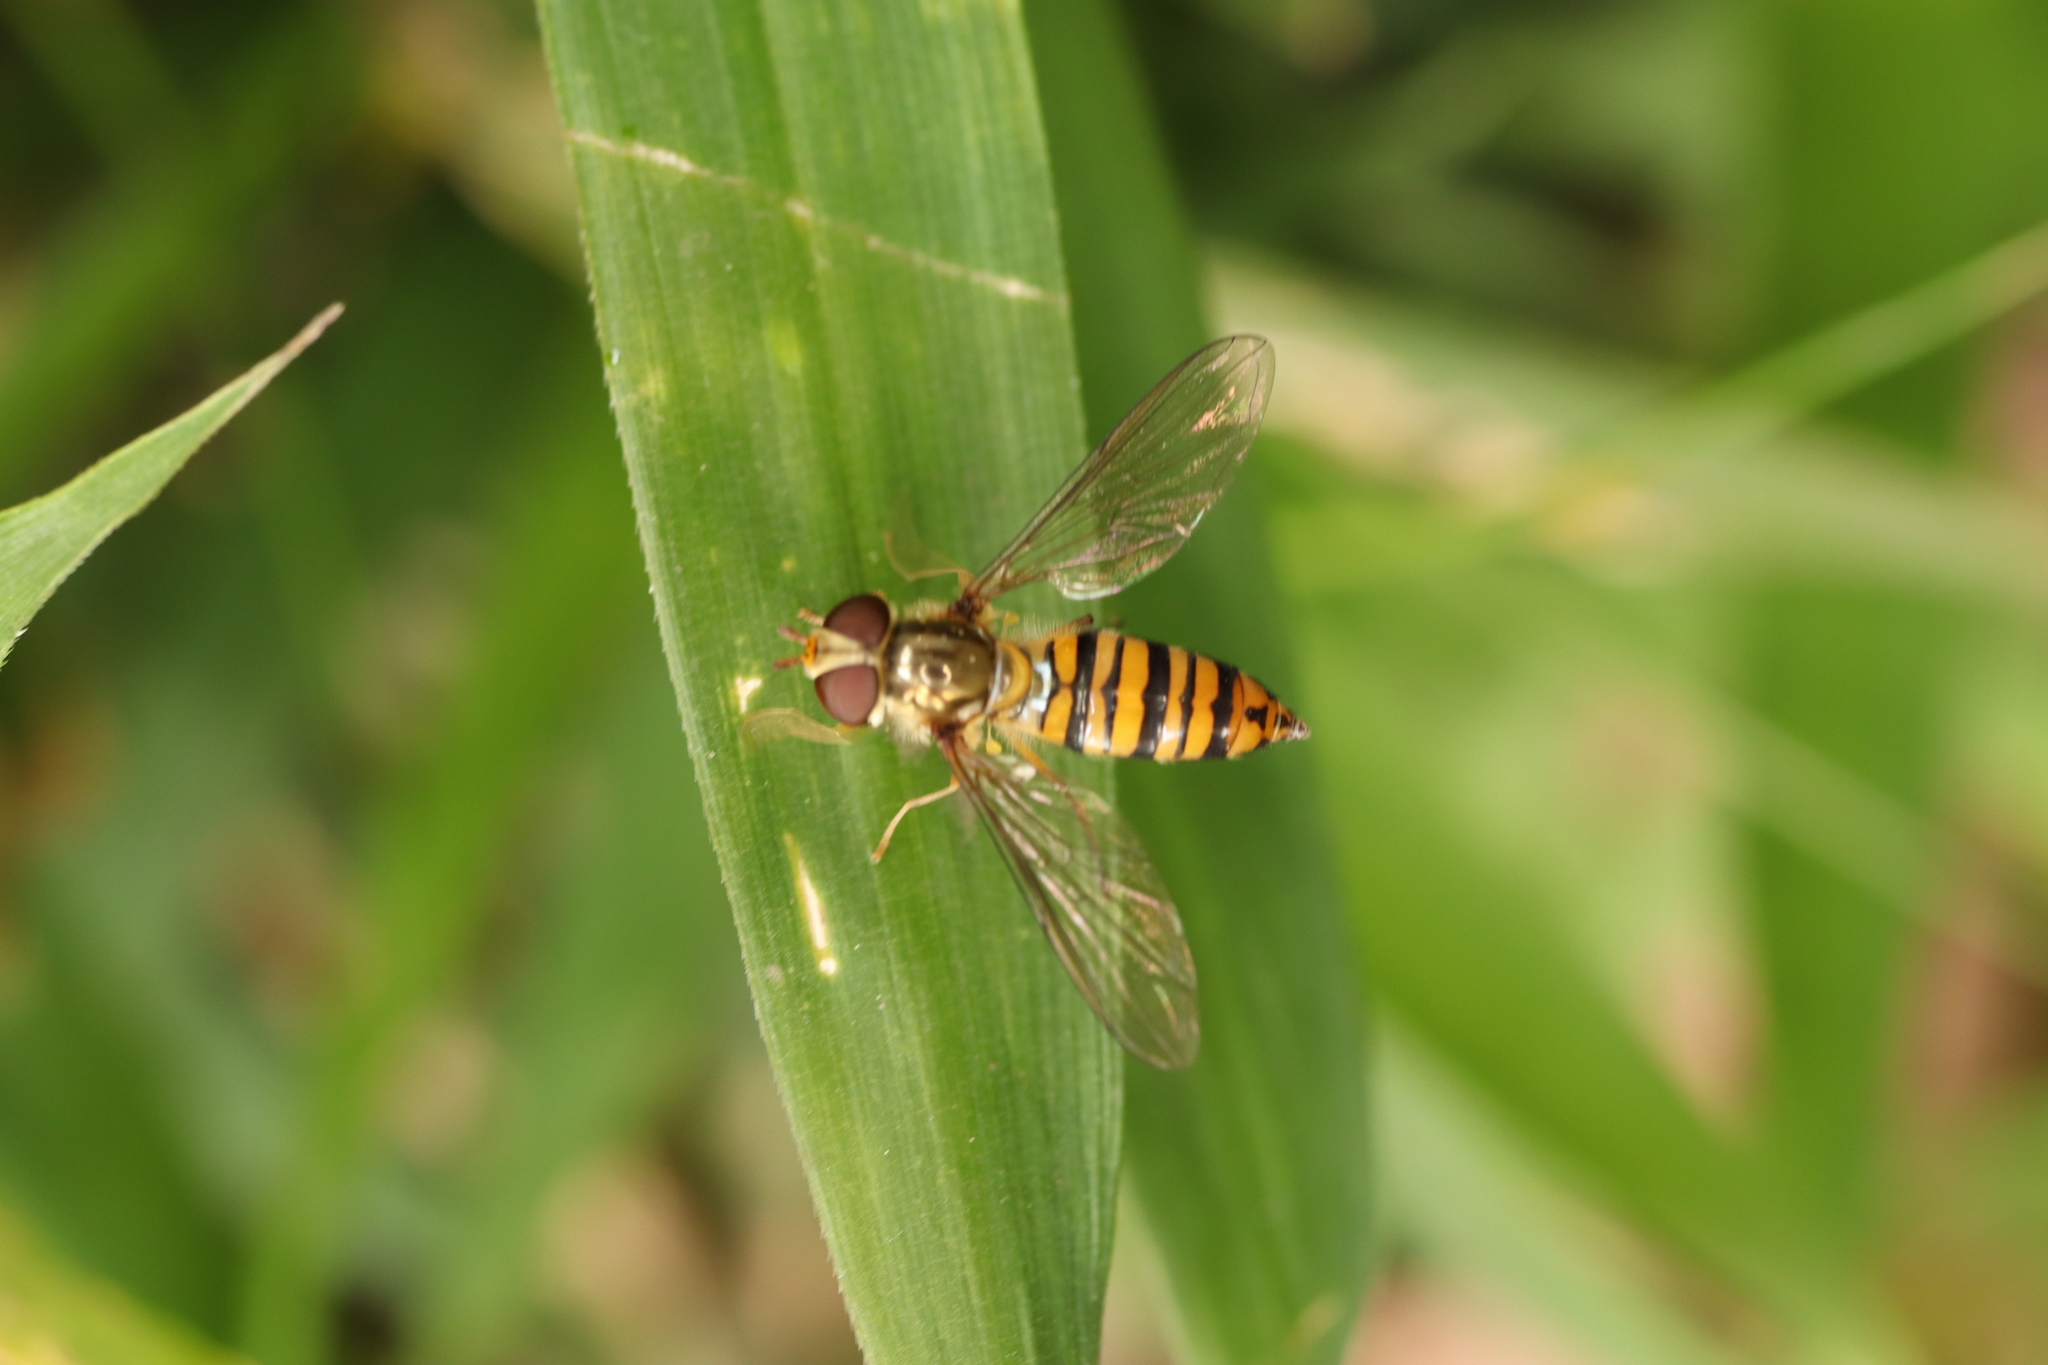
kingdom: Animalia
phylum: Arthropoda
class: Insecta
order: Diptera
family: Syrphidae
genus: Episyrphus
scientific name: Episyrphus balteatus
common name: Marmalade hoverfly
